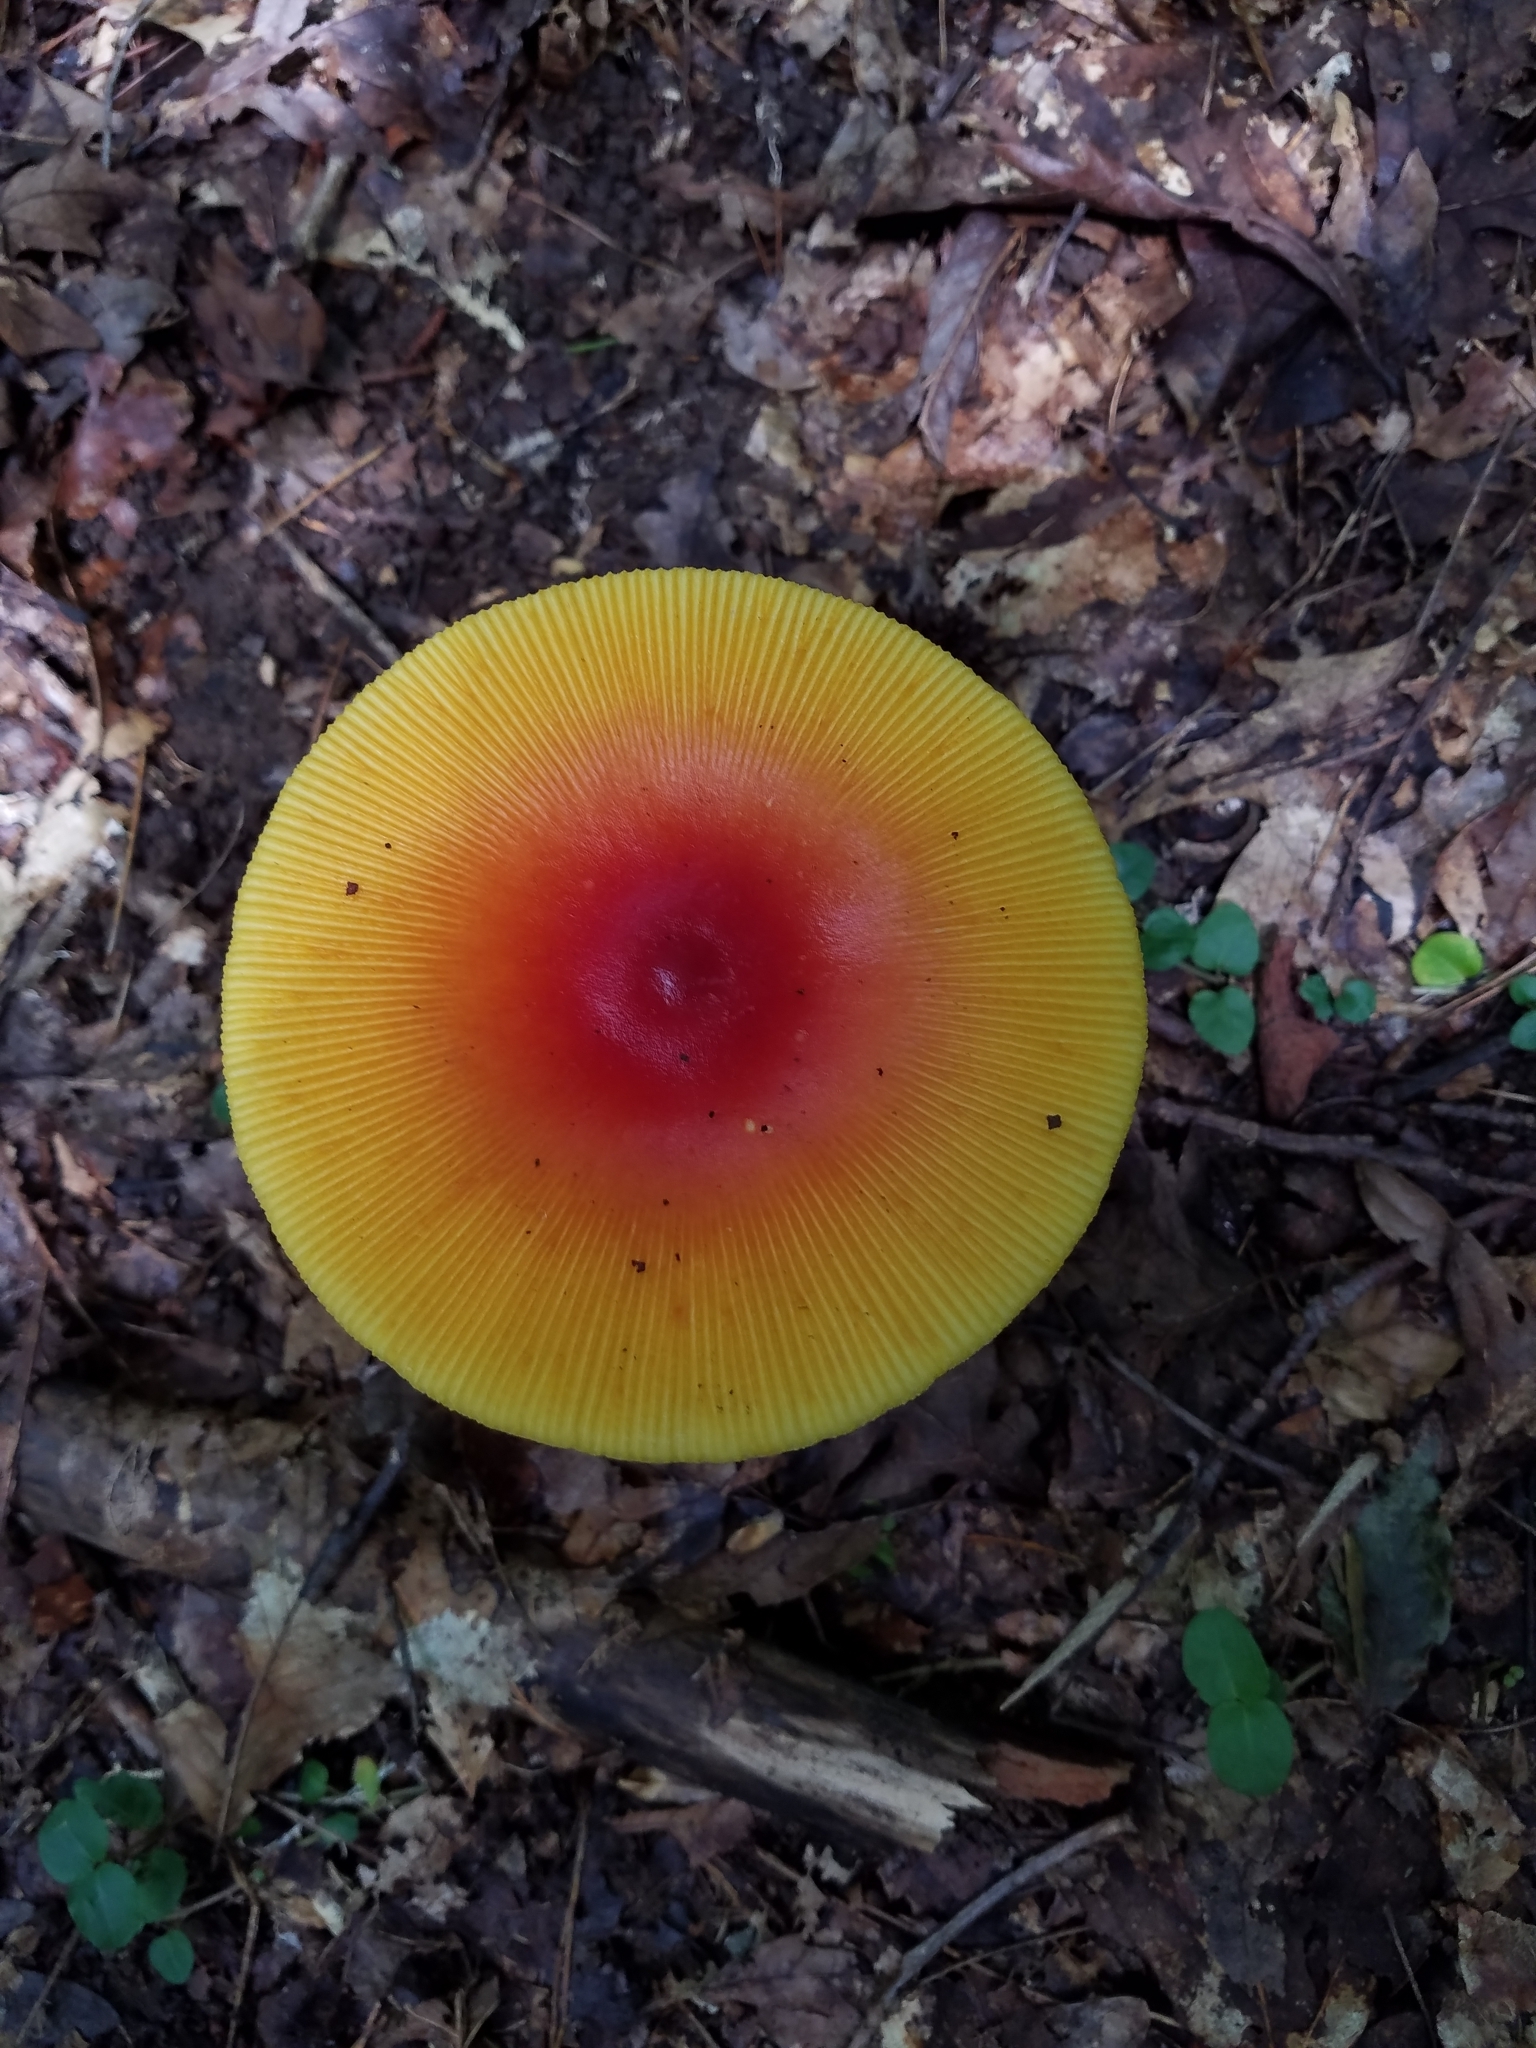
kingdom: Fungi
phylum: Basidiomycota
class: Agaricomycetes
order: Agaricales
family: Amanitaceae
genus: Amanita
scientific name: Amanita jacksonii
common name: Jackson's slender caesar
